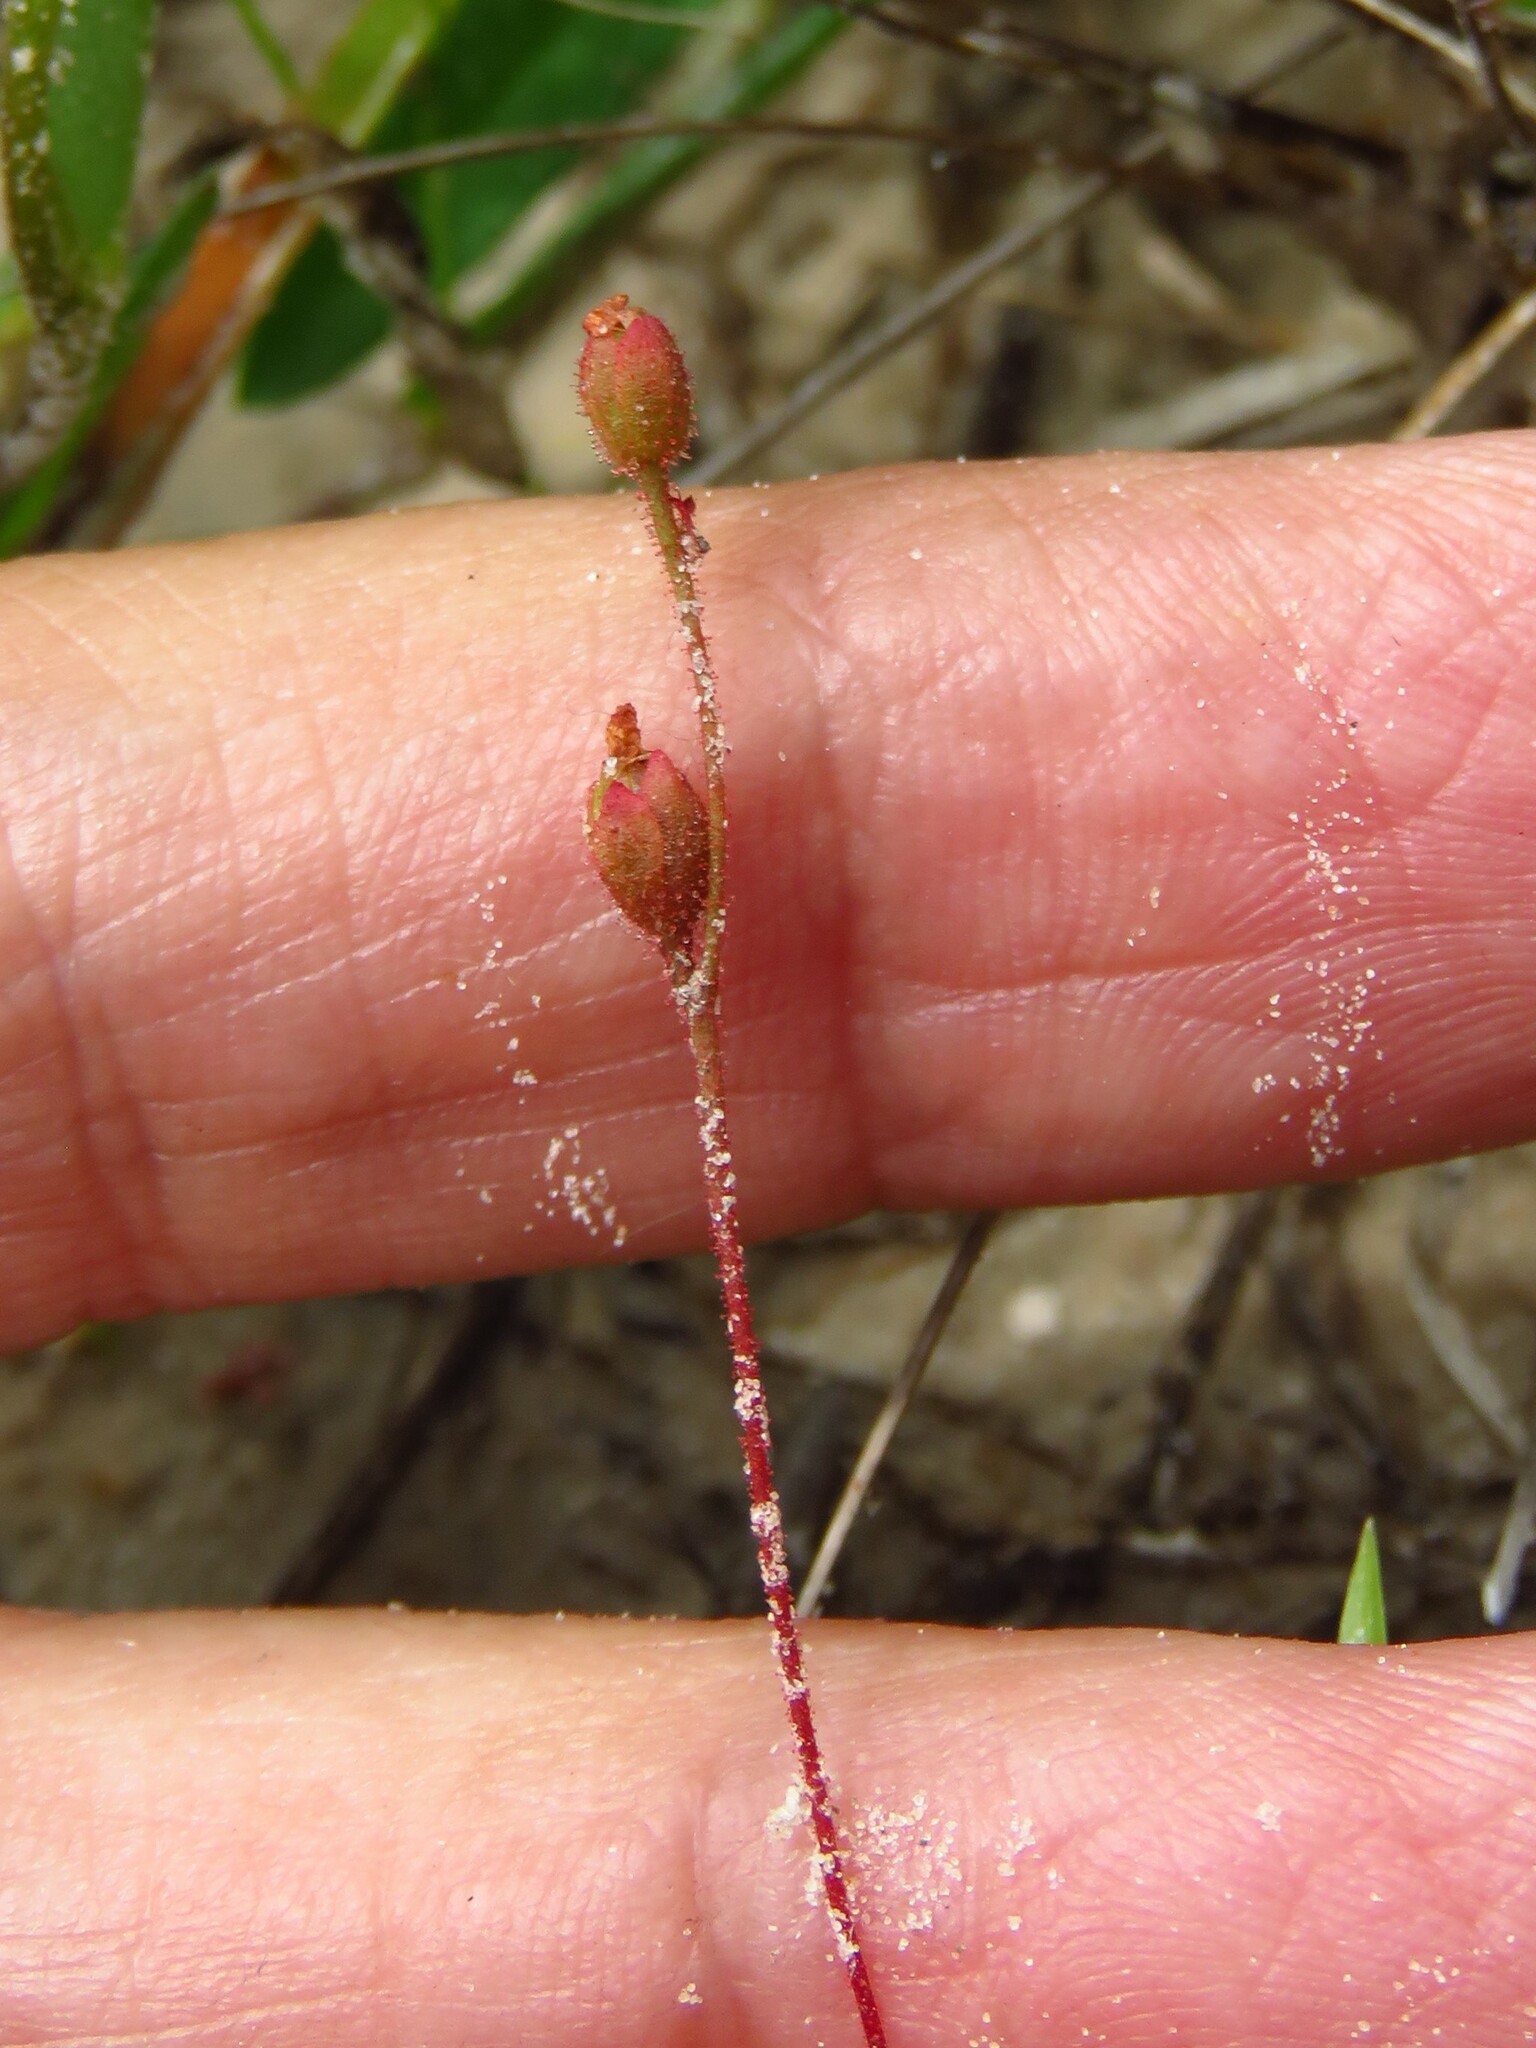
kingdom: Plantae
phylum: Tracheophyta
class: Magnoliopsida
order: Caryophyllales
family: Droseraceae
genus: Drosera
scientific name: Drosera brevifolia
